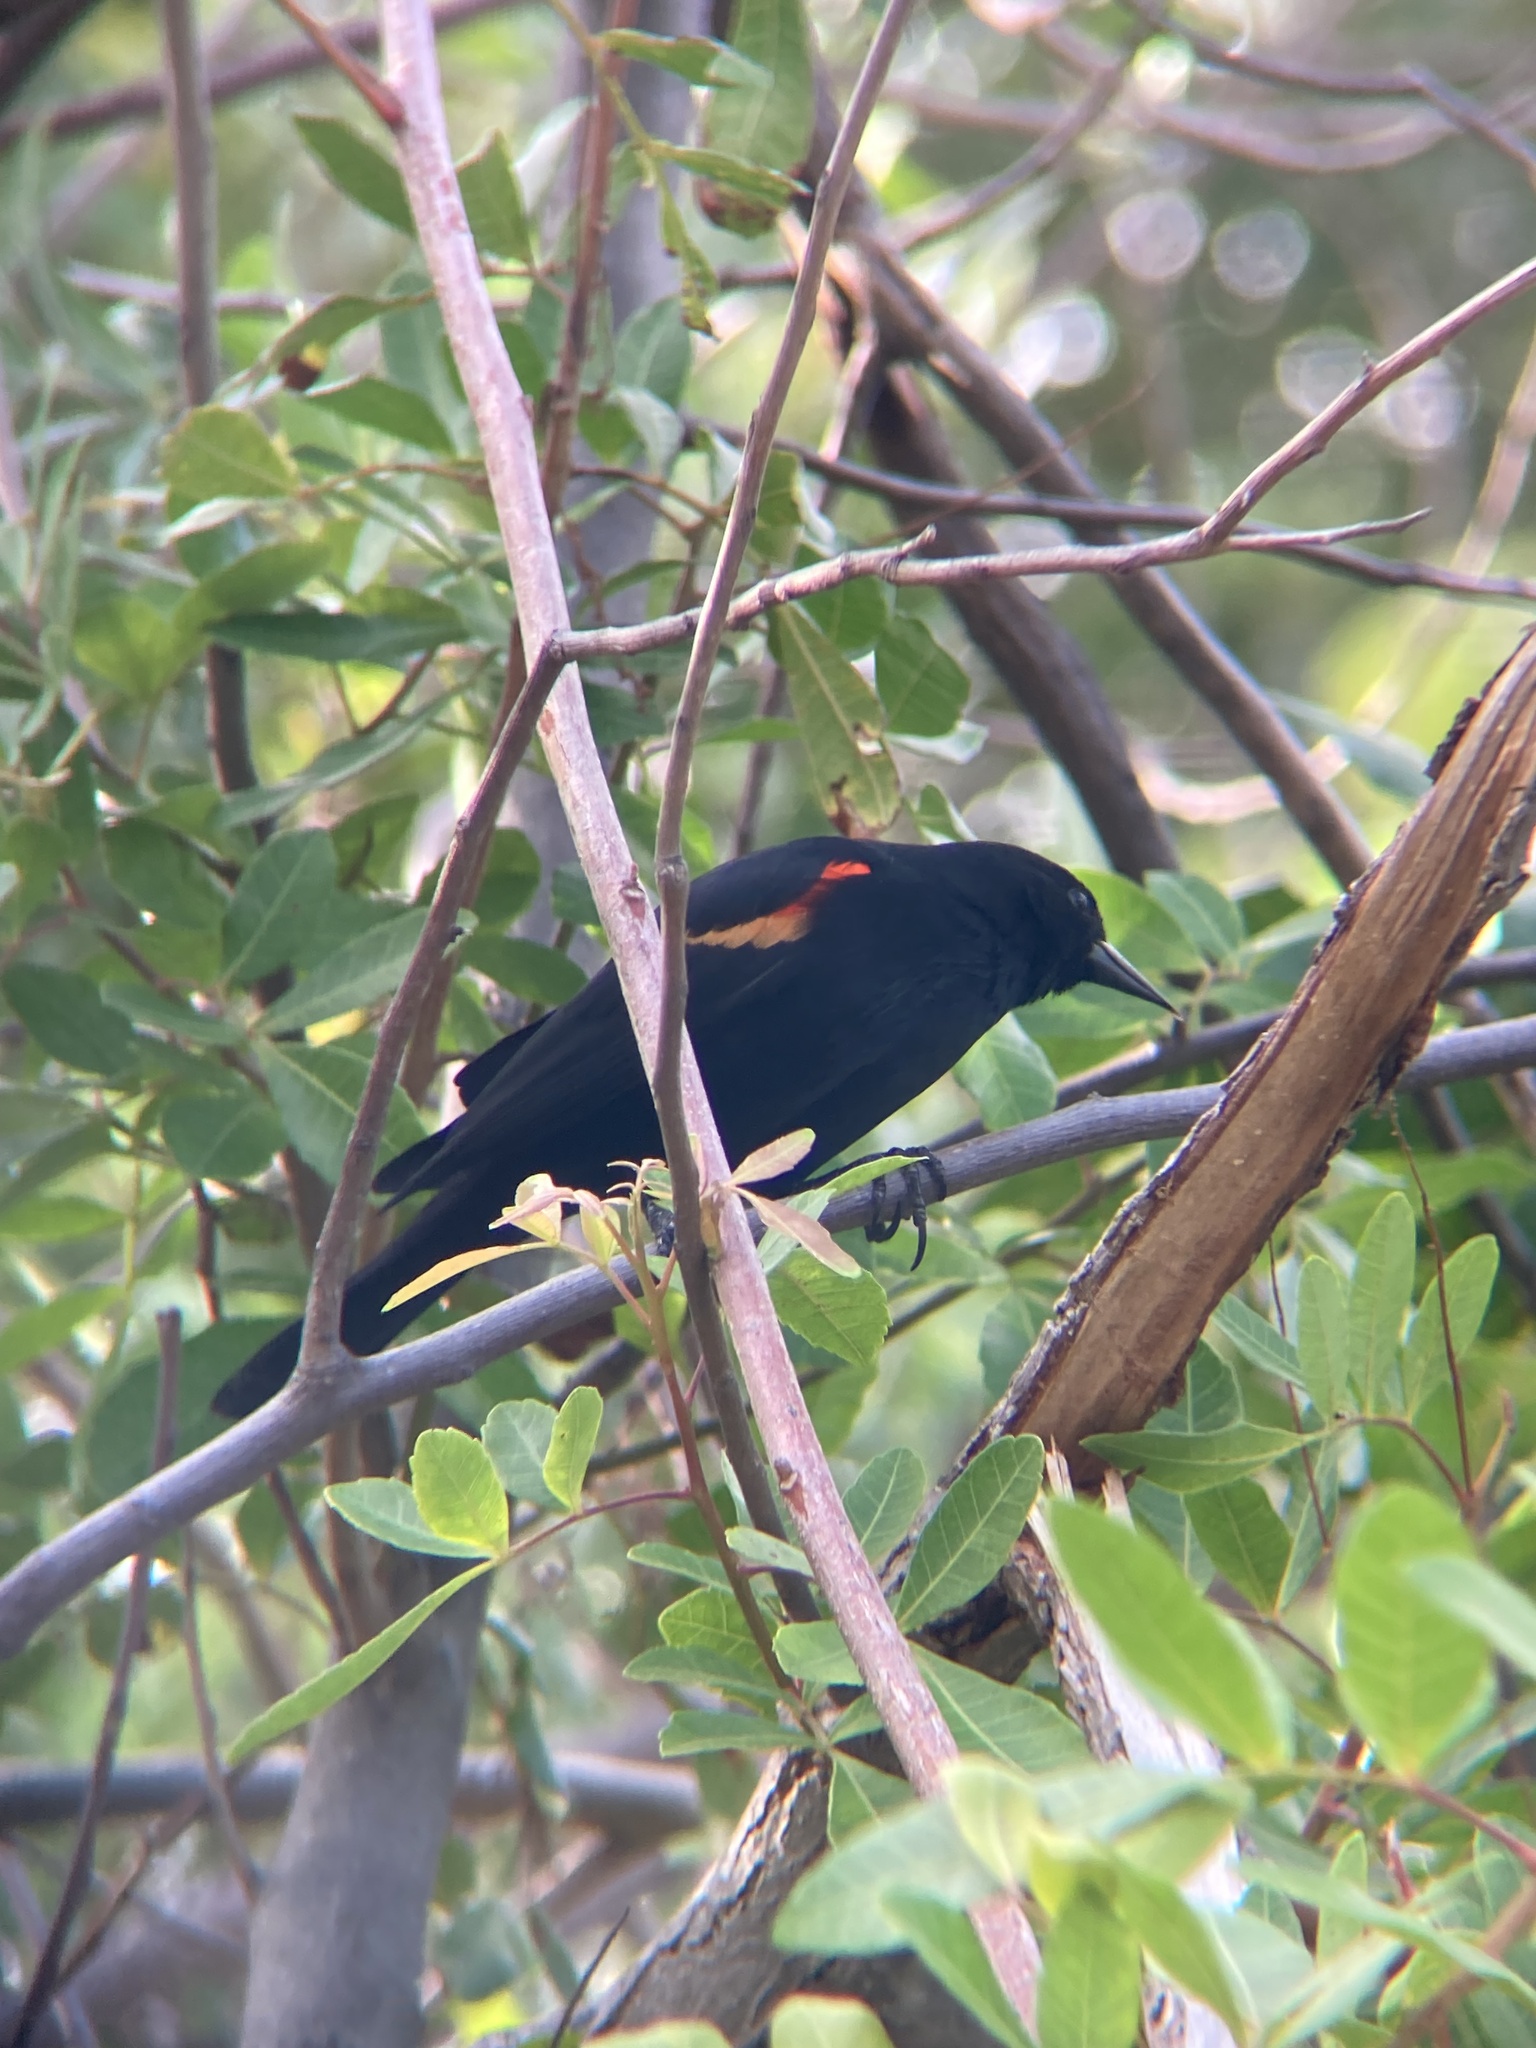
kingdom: Animalia
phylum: Chordata
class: Aves
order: Passeriformes
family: Icteridae
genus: Agelaius
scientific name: Agelaius phoeniceus
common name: Red-winged blackbird
